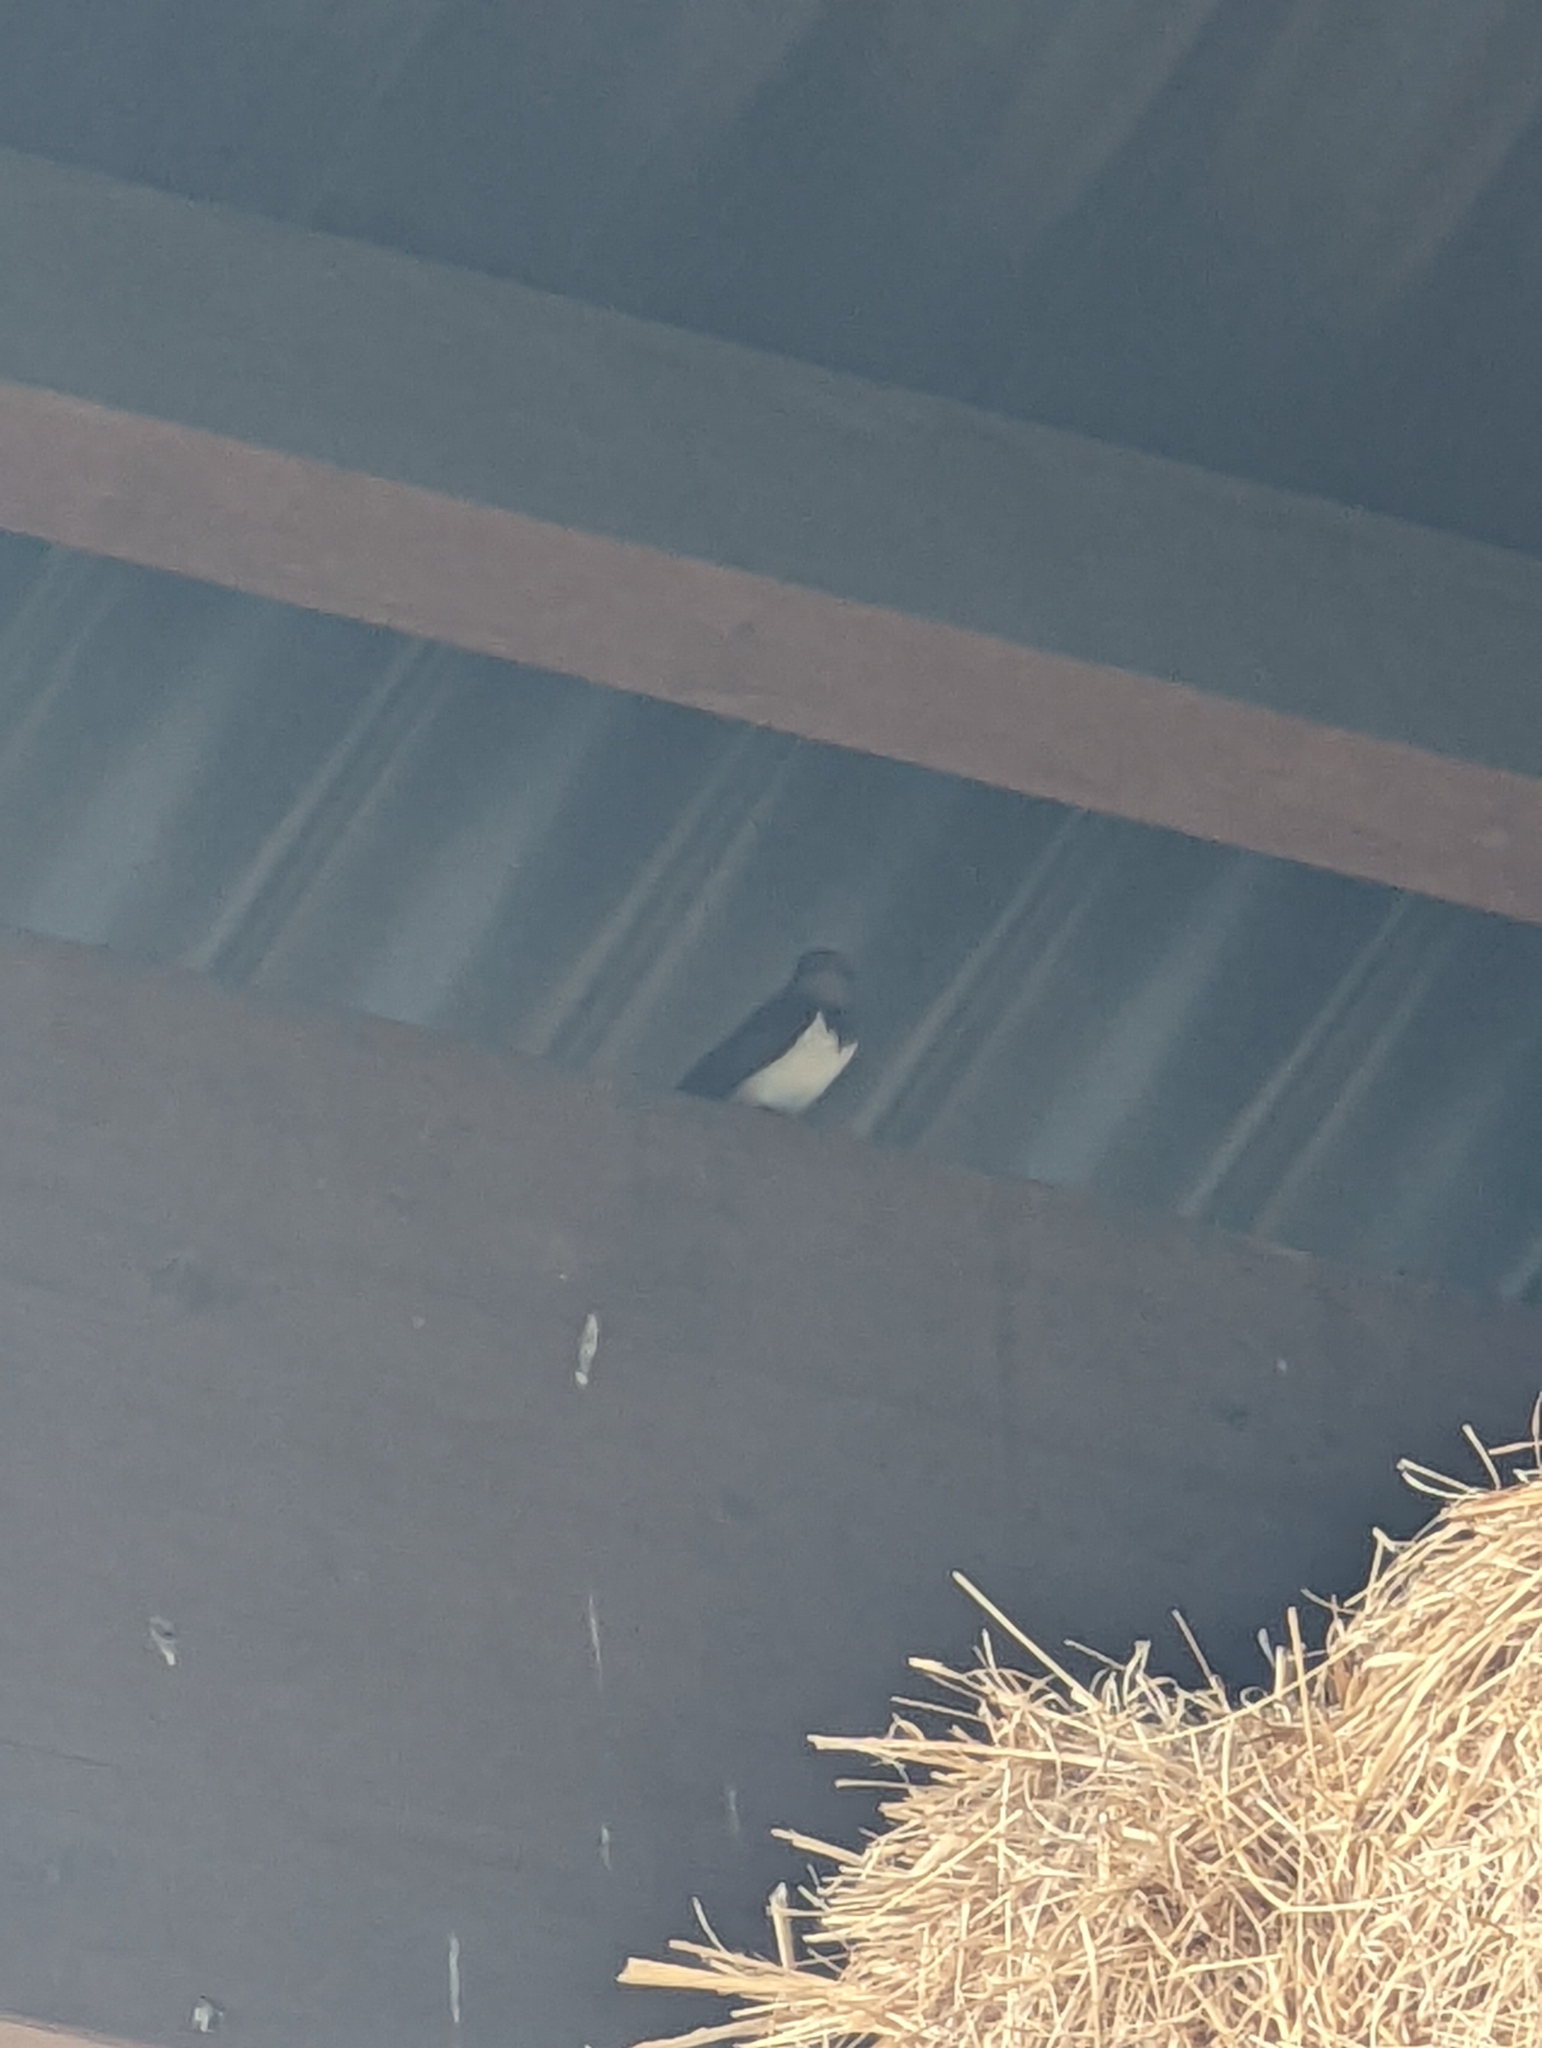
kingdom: Animalia
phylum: Chordata
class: Aves
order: Passeriformes
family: Hirundinidae
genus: Hirundo
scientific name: Hirundo rustica
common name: Barn swallow
